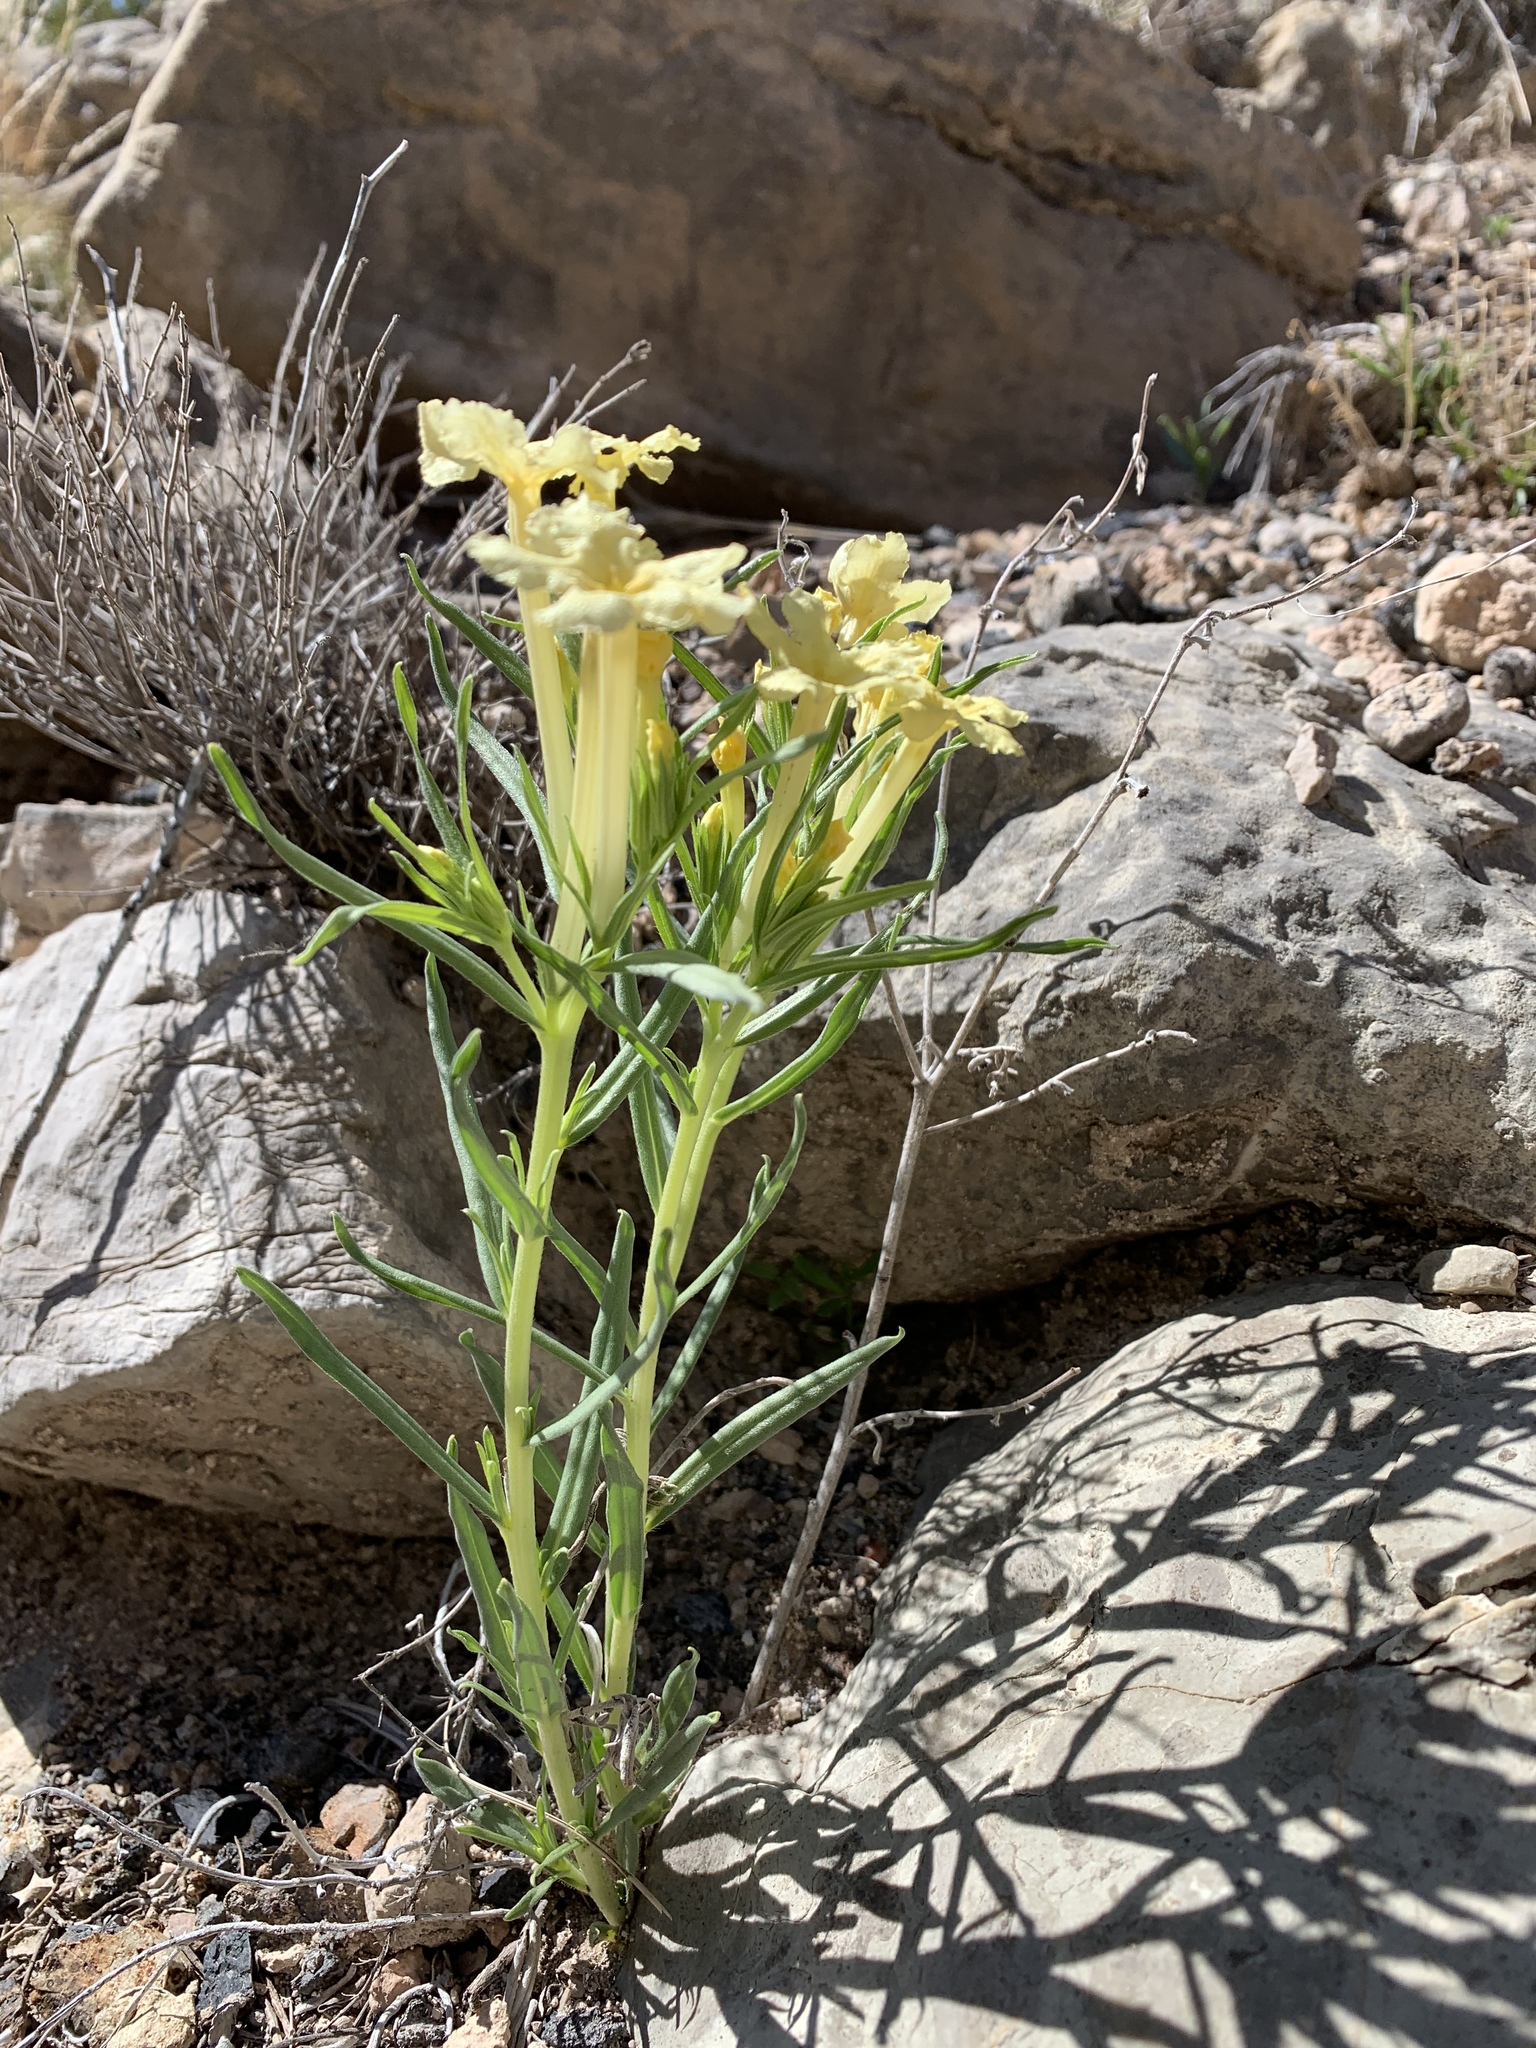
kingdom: Plantae
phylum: Tracheophyta
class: Magnoliopsida
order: Boraginales
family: Boraginaceae
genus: Lithospermum
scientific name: Lithospermum incisum
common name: Fringed gromwell
